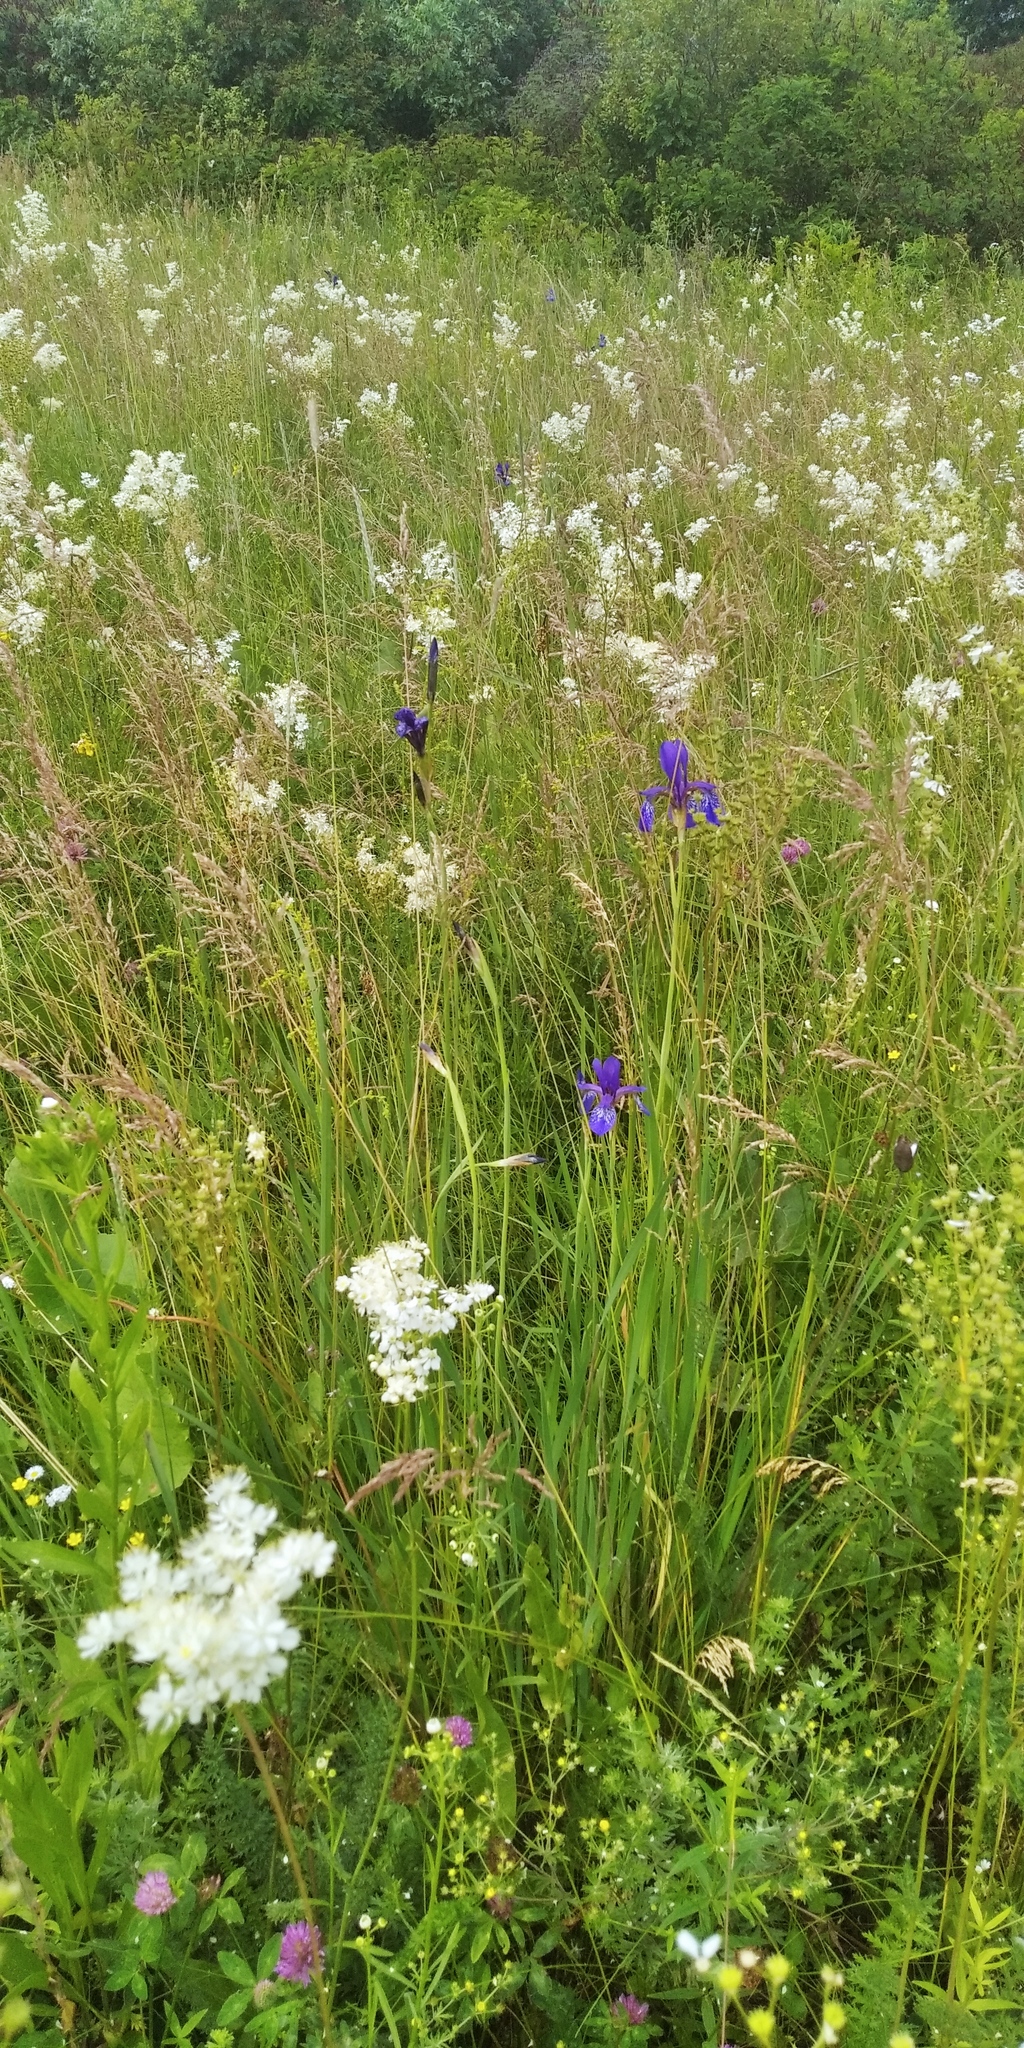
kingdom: Plantae
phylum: Tracheophyta
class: Liliopsida
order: Asparagales
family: Iridaceae
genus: Iris
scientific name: Iris sibirica
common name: Siberian iris
